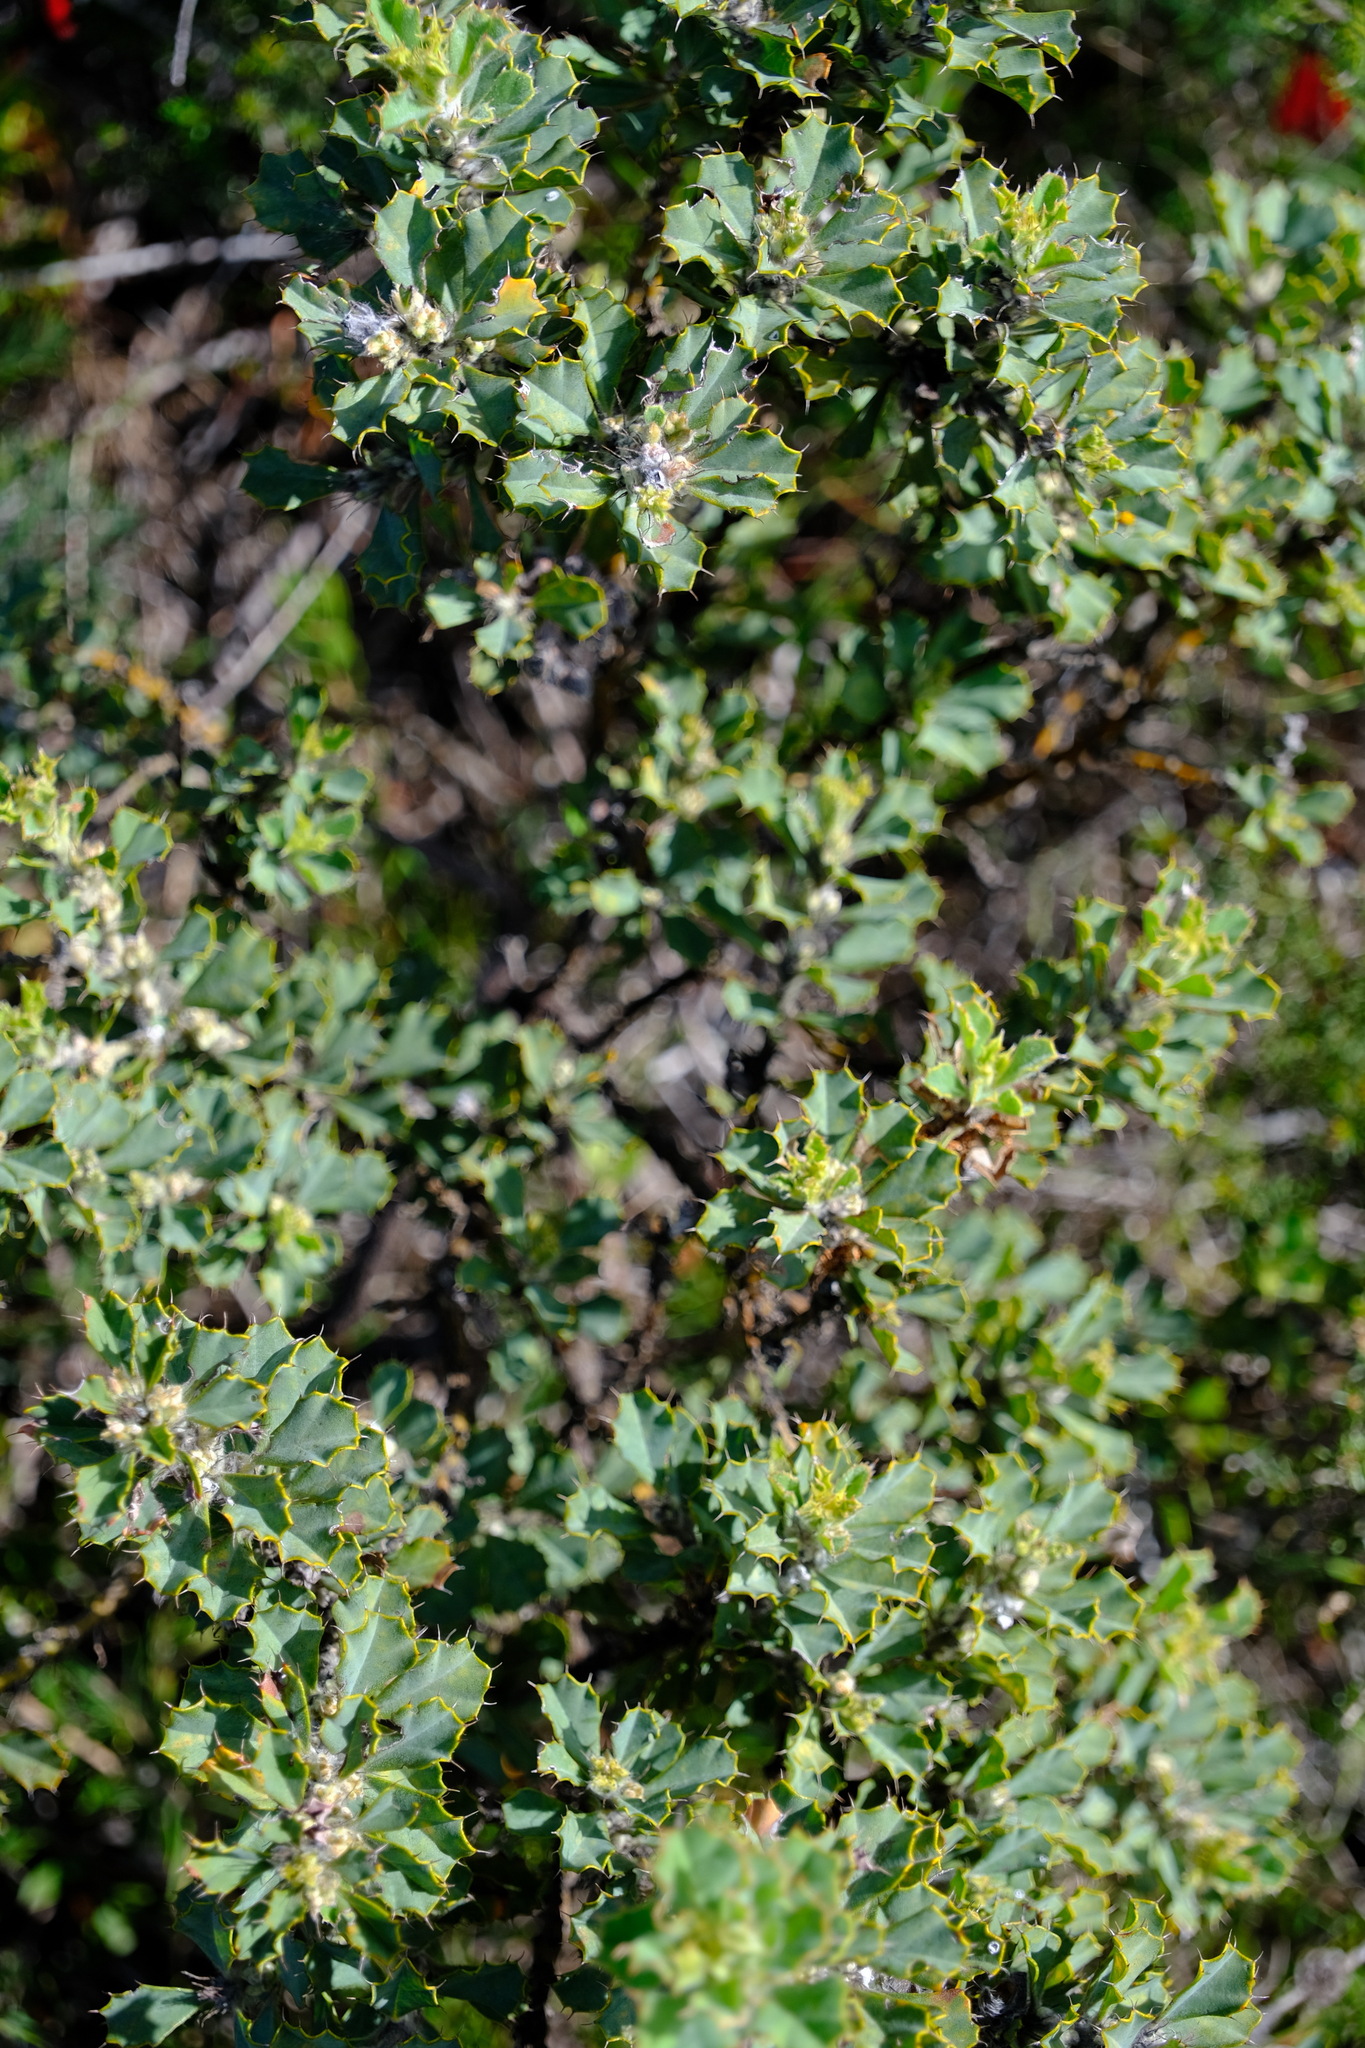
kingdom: Plantae
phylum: Tracheophyta
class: Magnoliopsida
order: Fabales
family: Fabaceae
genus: Gastrolobium
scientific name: Gastrolobium ilicifolium
